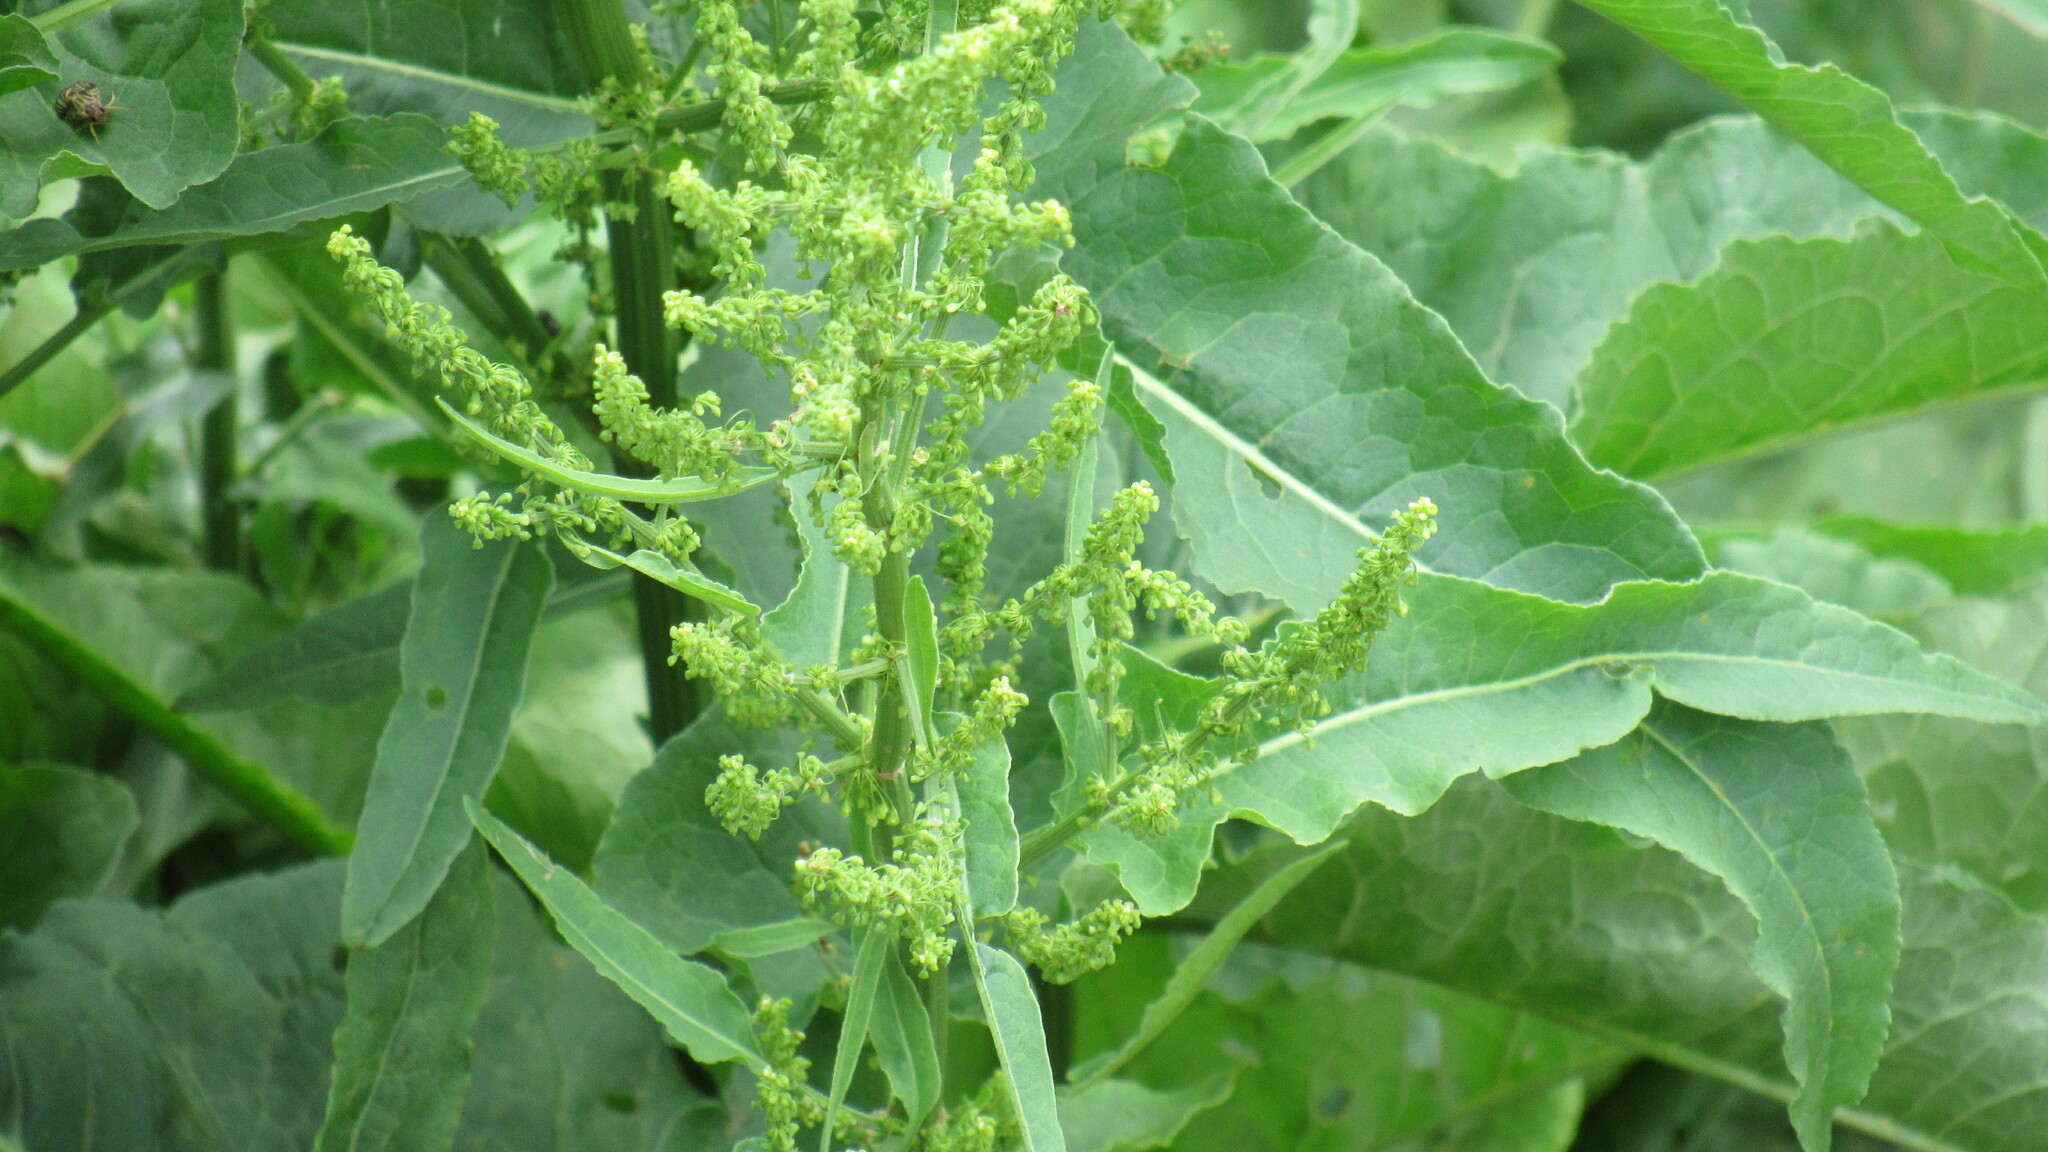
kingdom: Plantae
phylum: Tracheophyta
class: Magnoliopsida
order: Caryophyllales
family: Polygonaceae
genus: Rumex
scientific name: Rumex aquaticus
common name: Scottish dock
